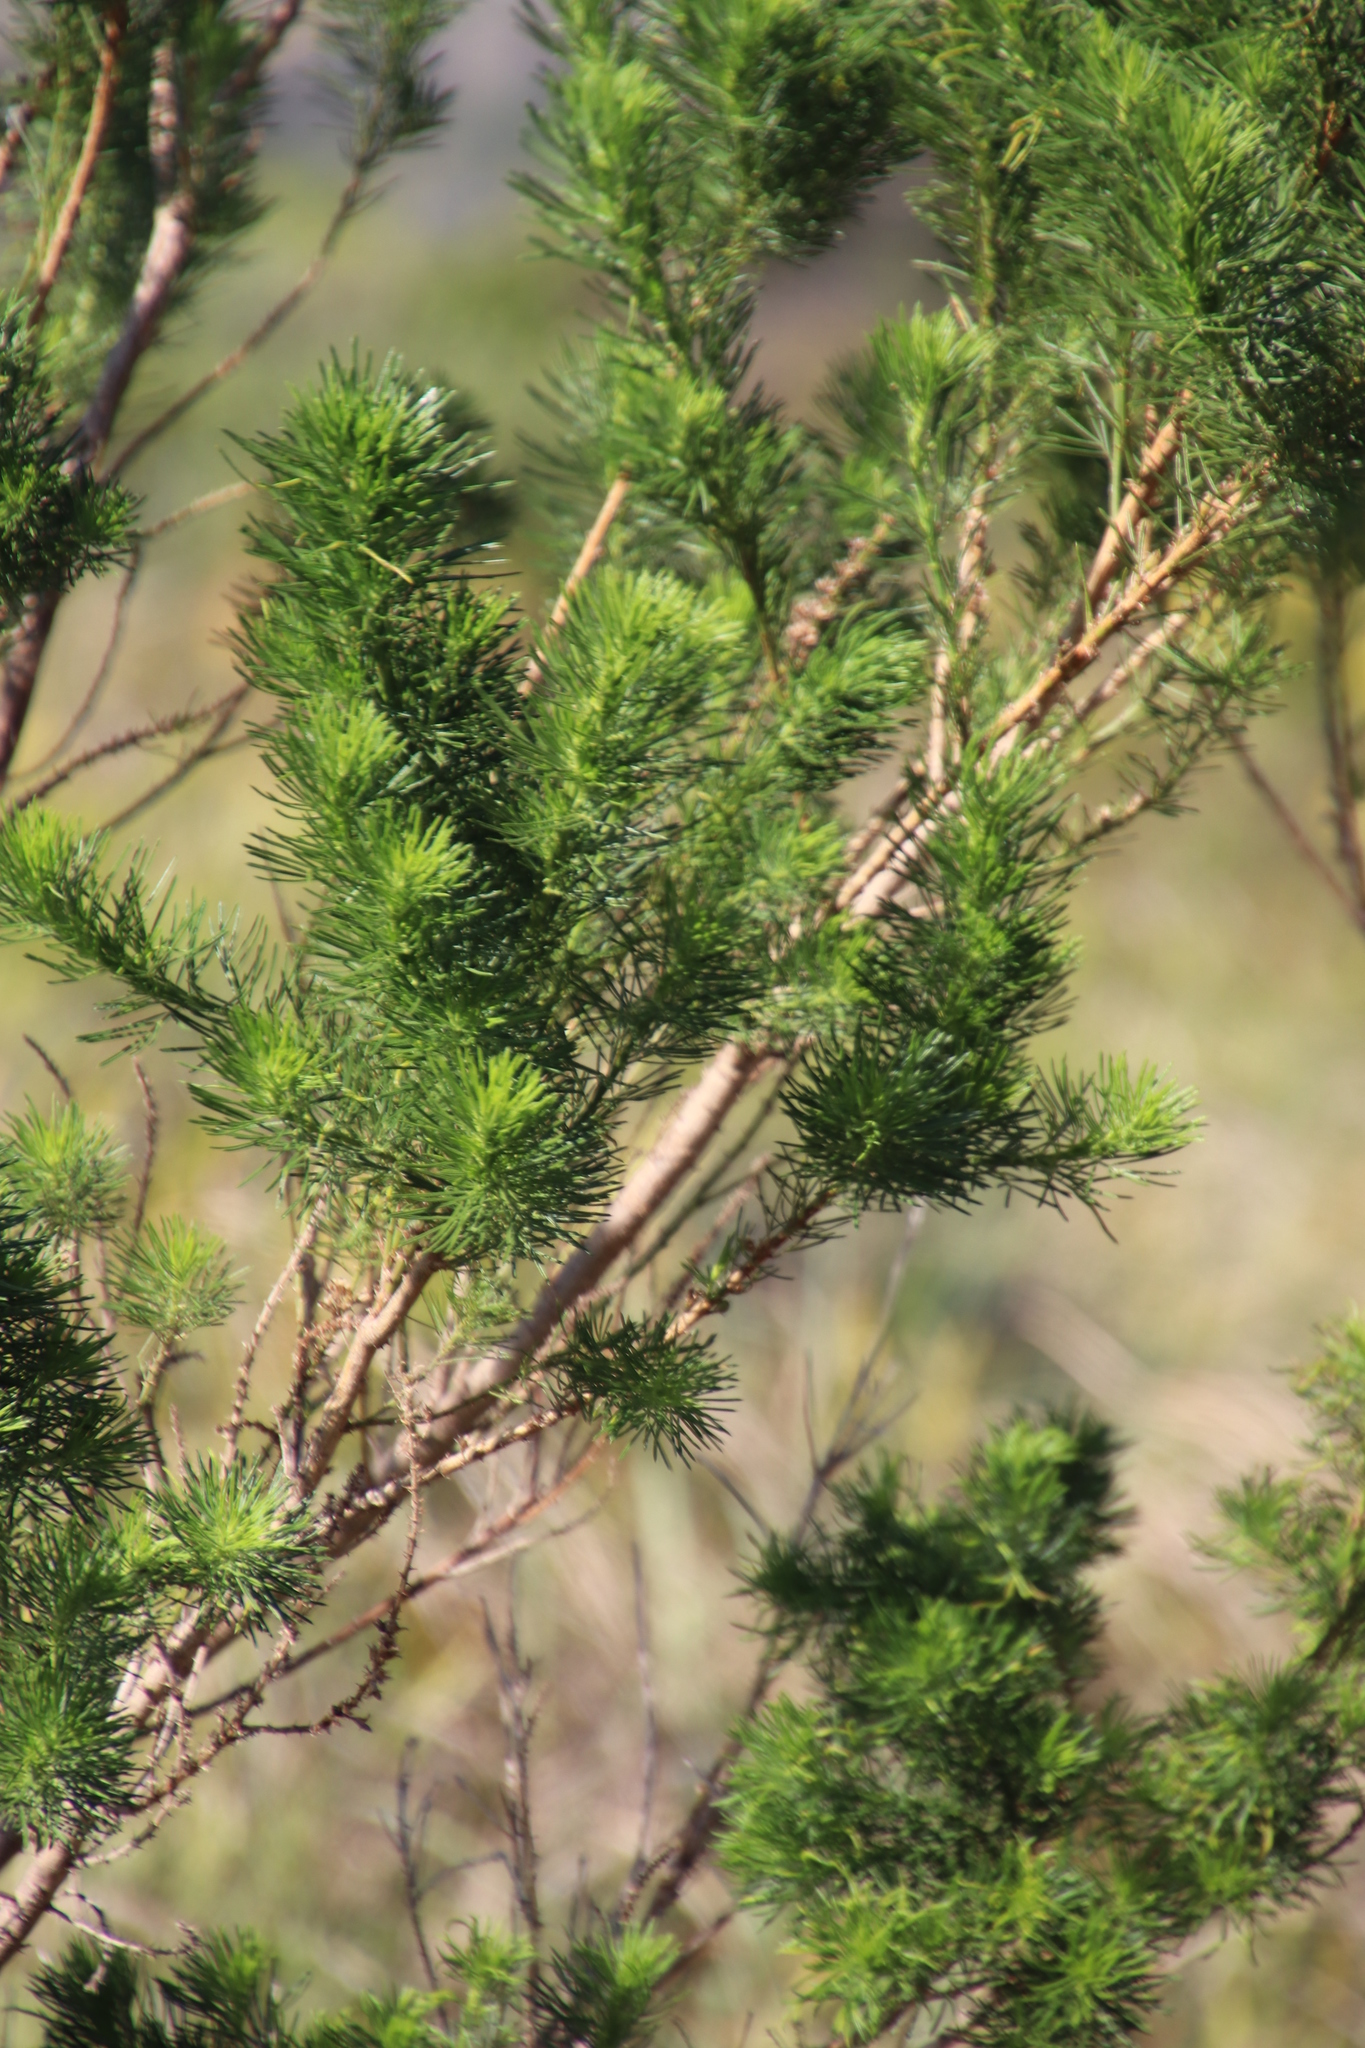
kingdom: Plantae
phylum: Tracheophyta
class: Magnoliopsida
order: Fabales
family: Fabaceae
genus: Psoralea
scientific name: Psoralea pinnata
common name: African scurfpea
